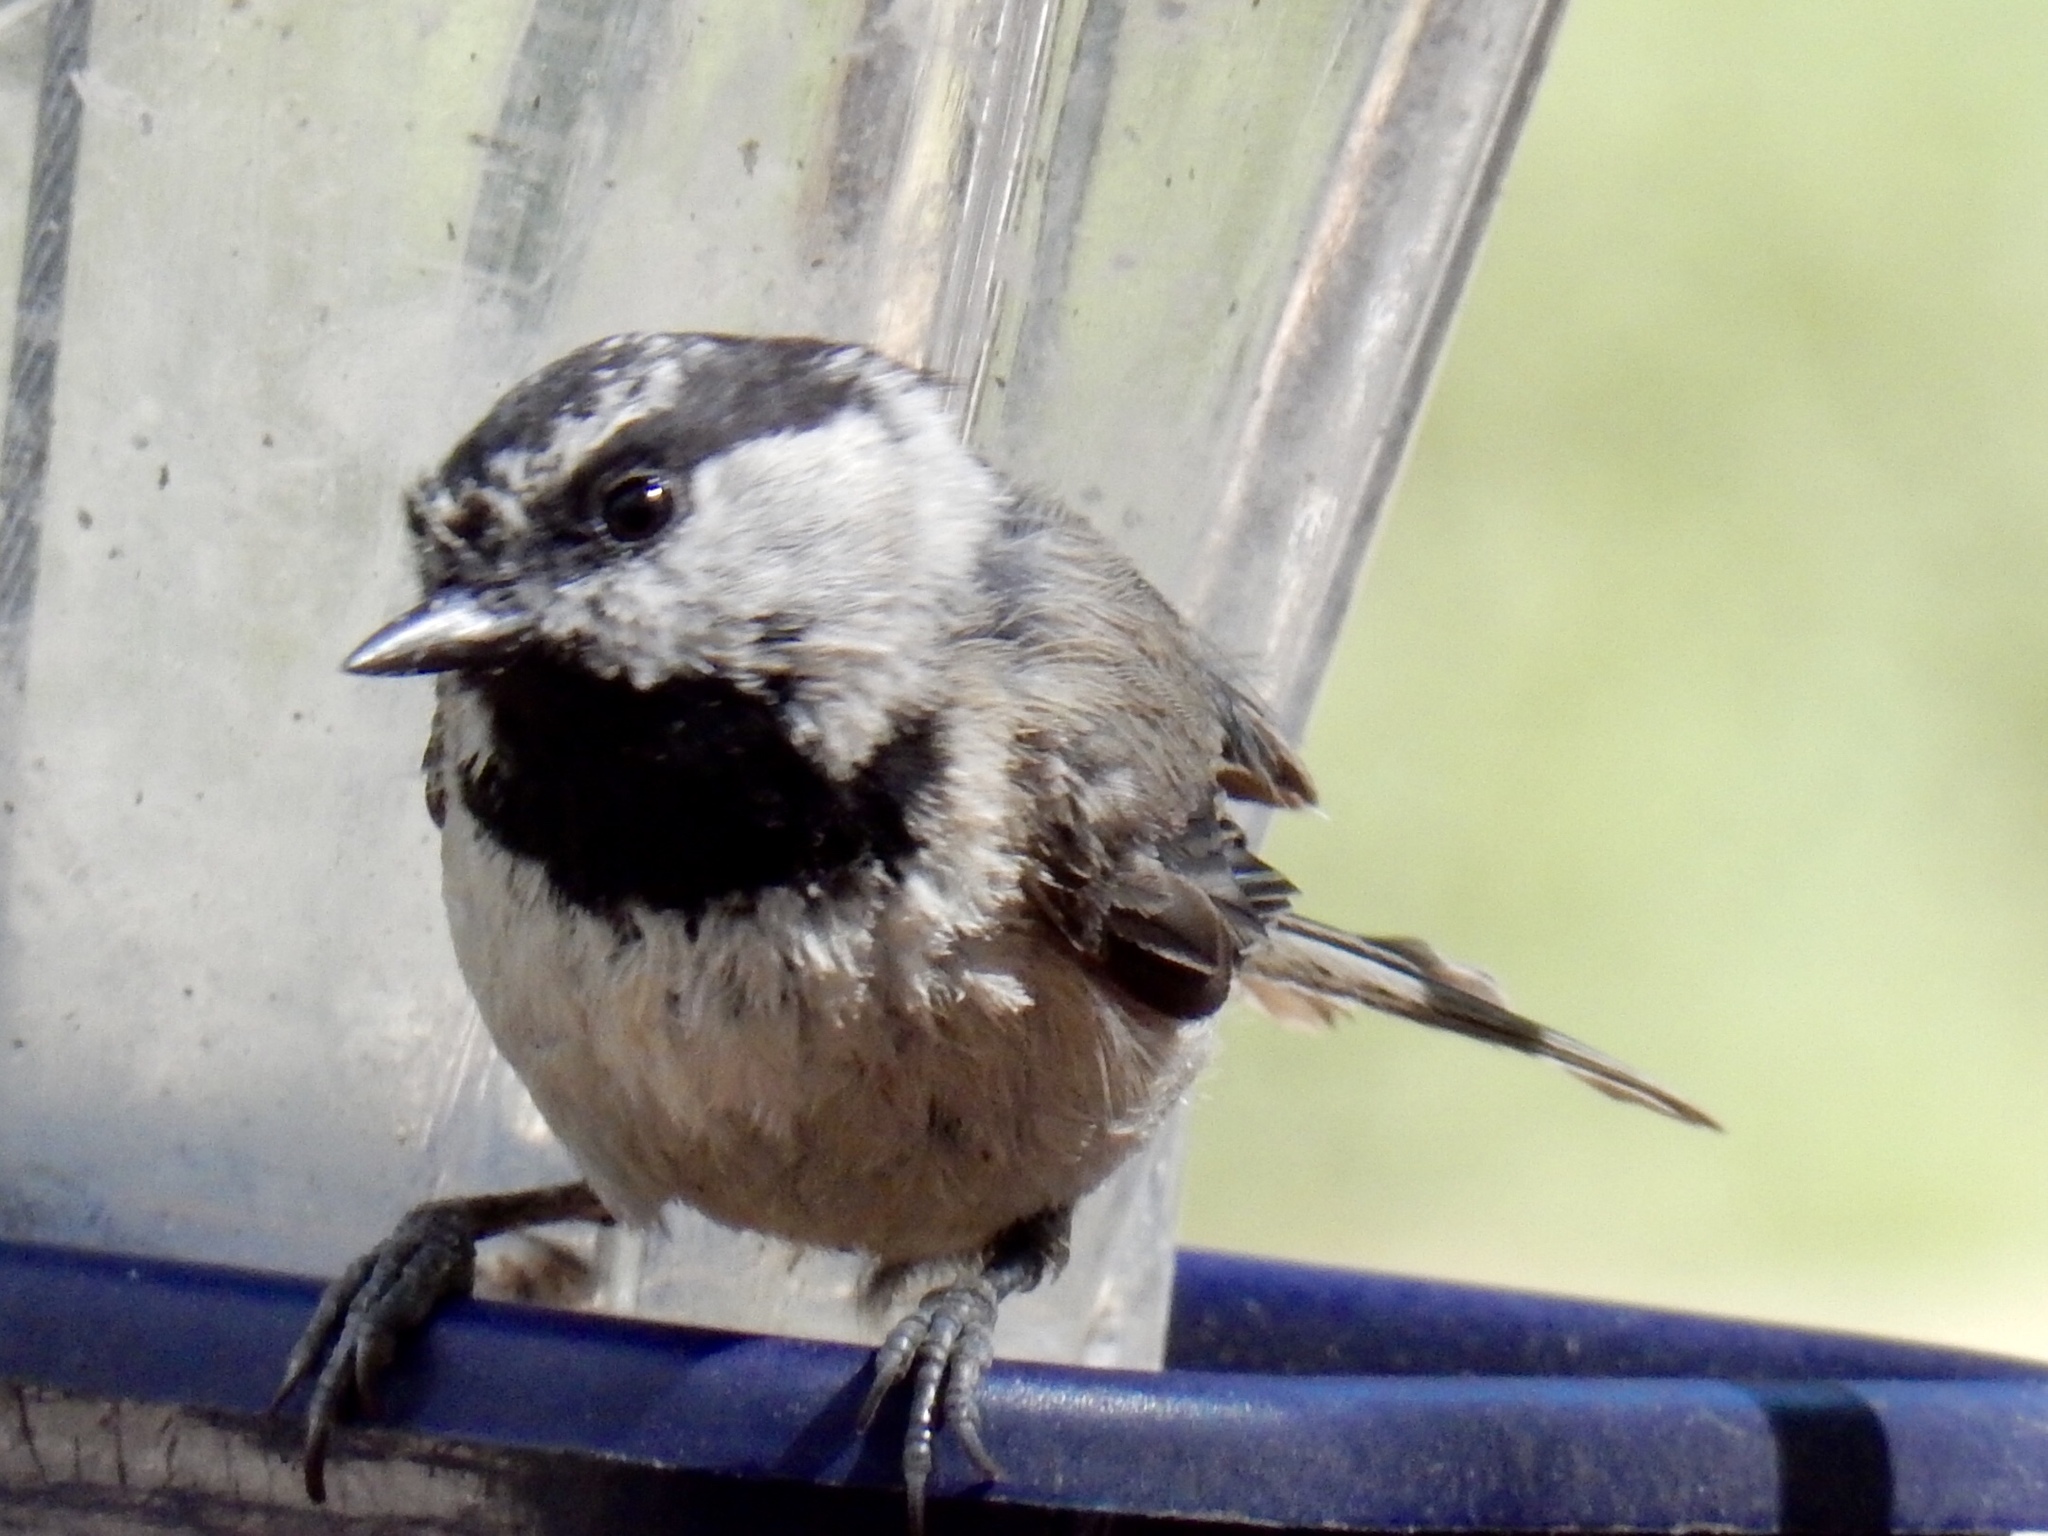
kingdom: Animalia
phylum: Chordata
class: Aves
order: Passeriformes
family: Paridae
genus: Poecile
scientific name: Poecile gambeli
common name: Mountain chickadee
